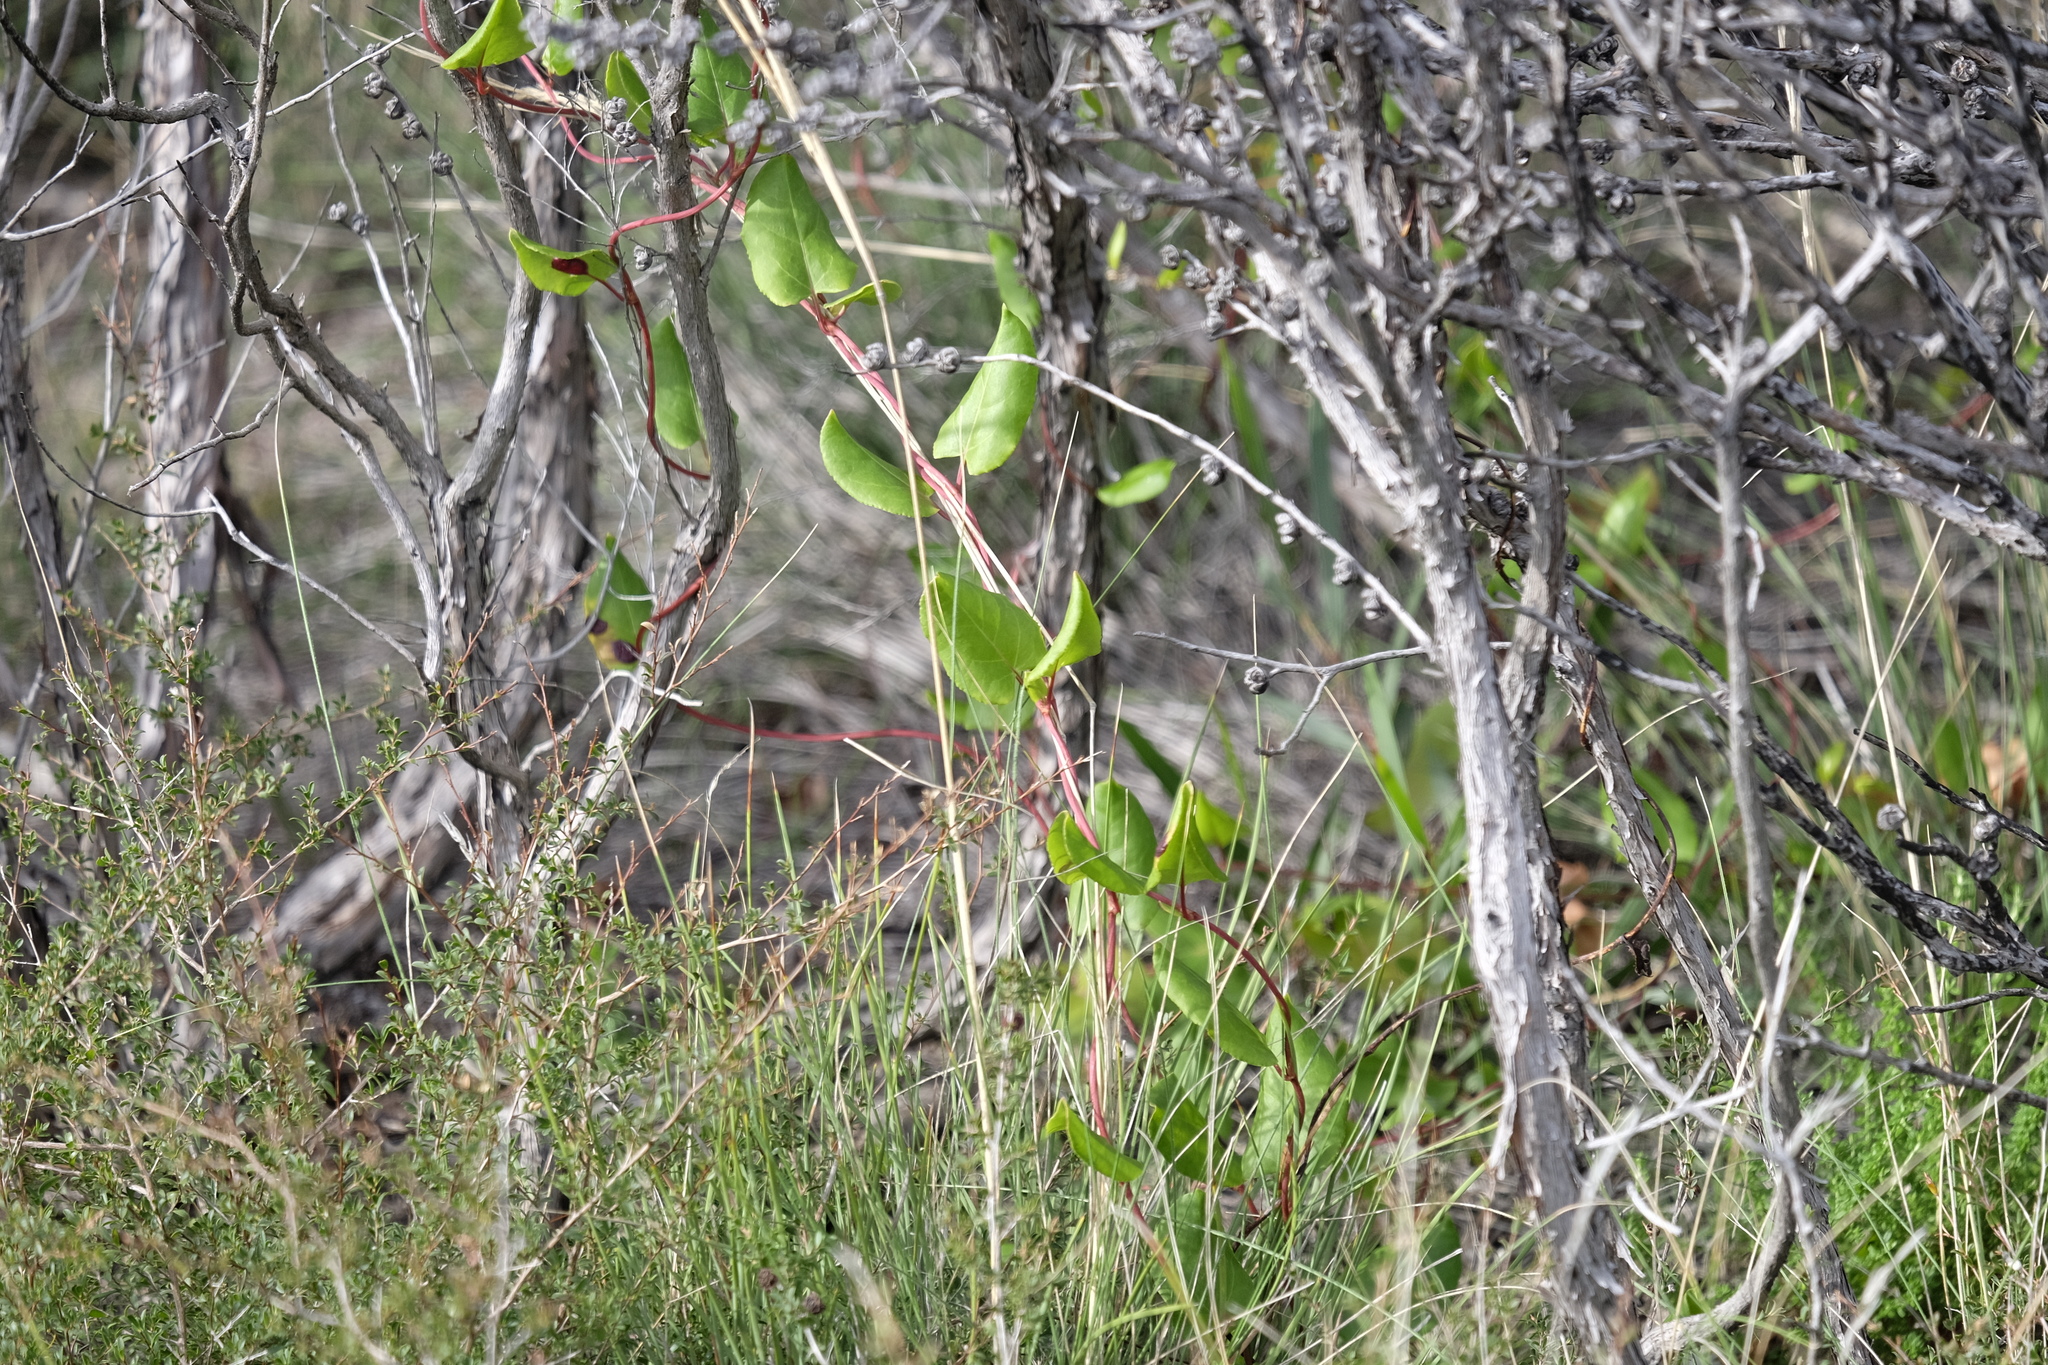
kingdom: Plantae
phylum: Tracheophyta
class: Magnoliopsida
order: Caryophyllales
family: Polygonaceae
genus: Muehlenbeckia
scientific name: Muehlenbeckia adpressa
